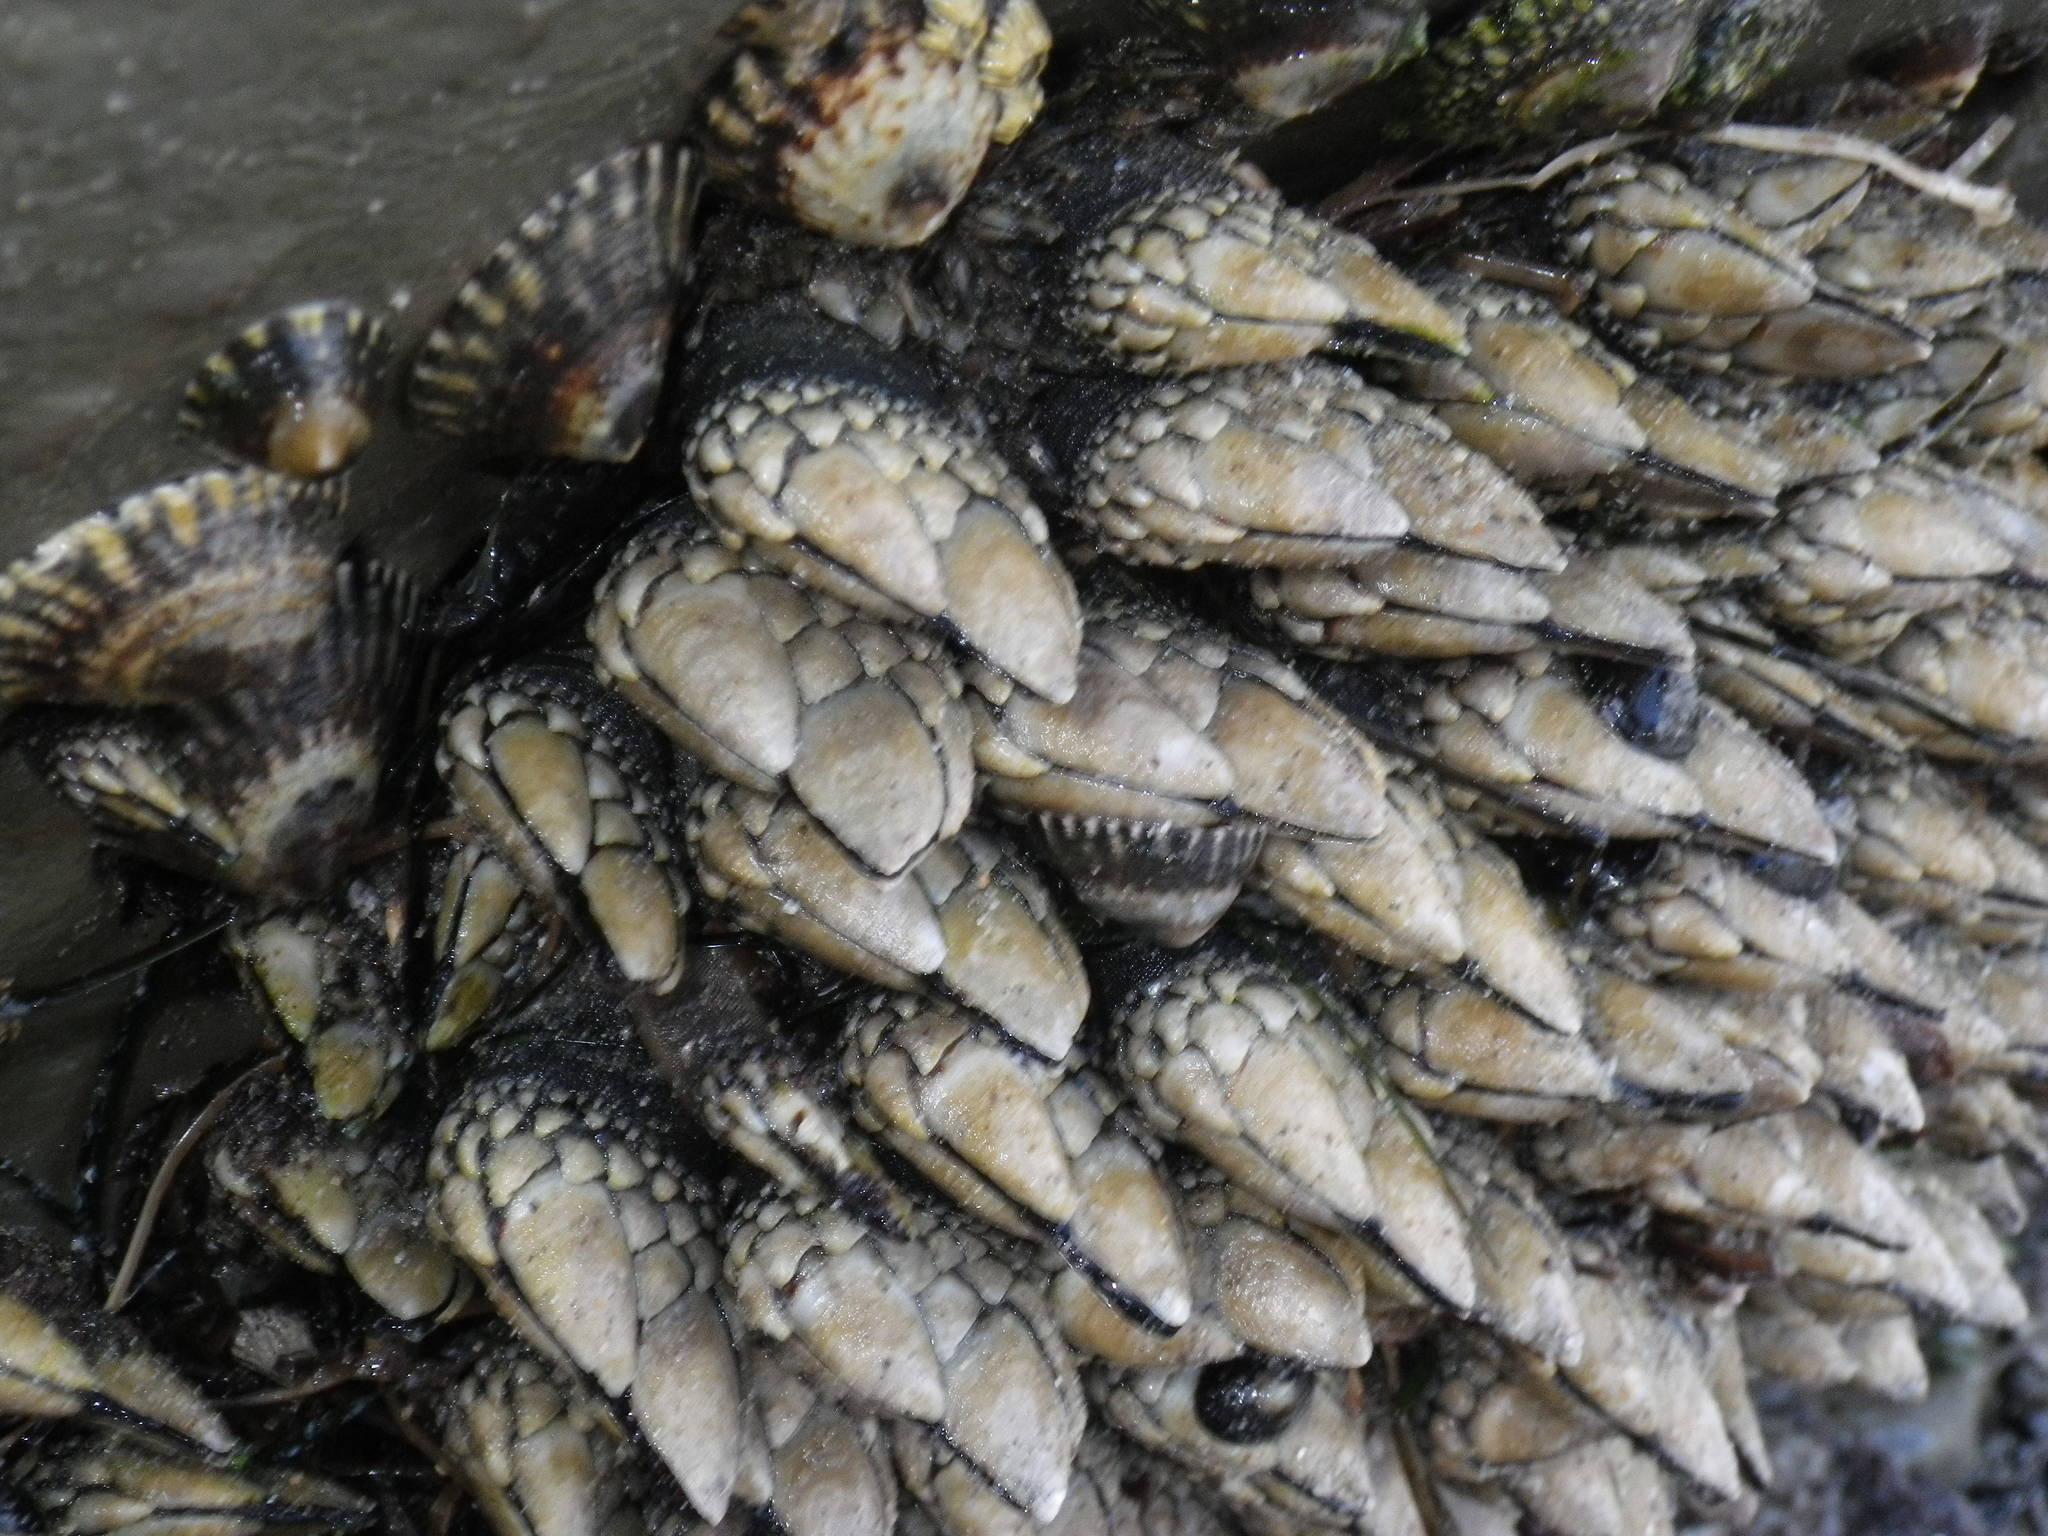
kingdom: Animalia
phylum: Arthropoda
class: Maxillopoda
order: Pedunculata
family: Pollicipedidae
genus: Pollicipes
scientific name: Pollicipes polymerus
